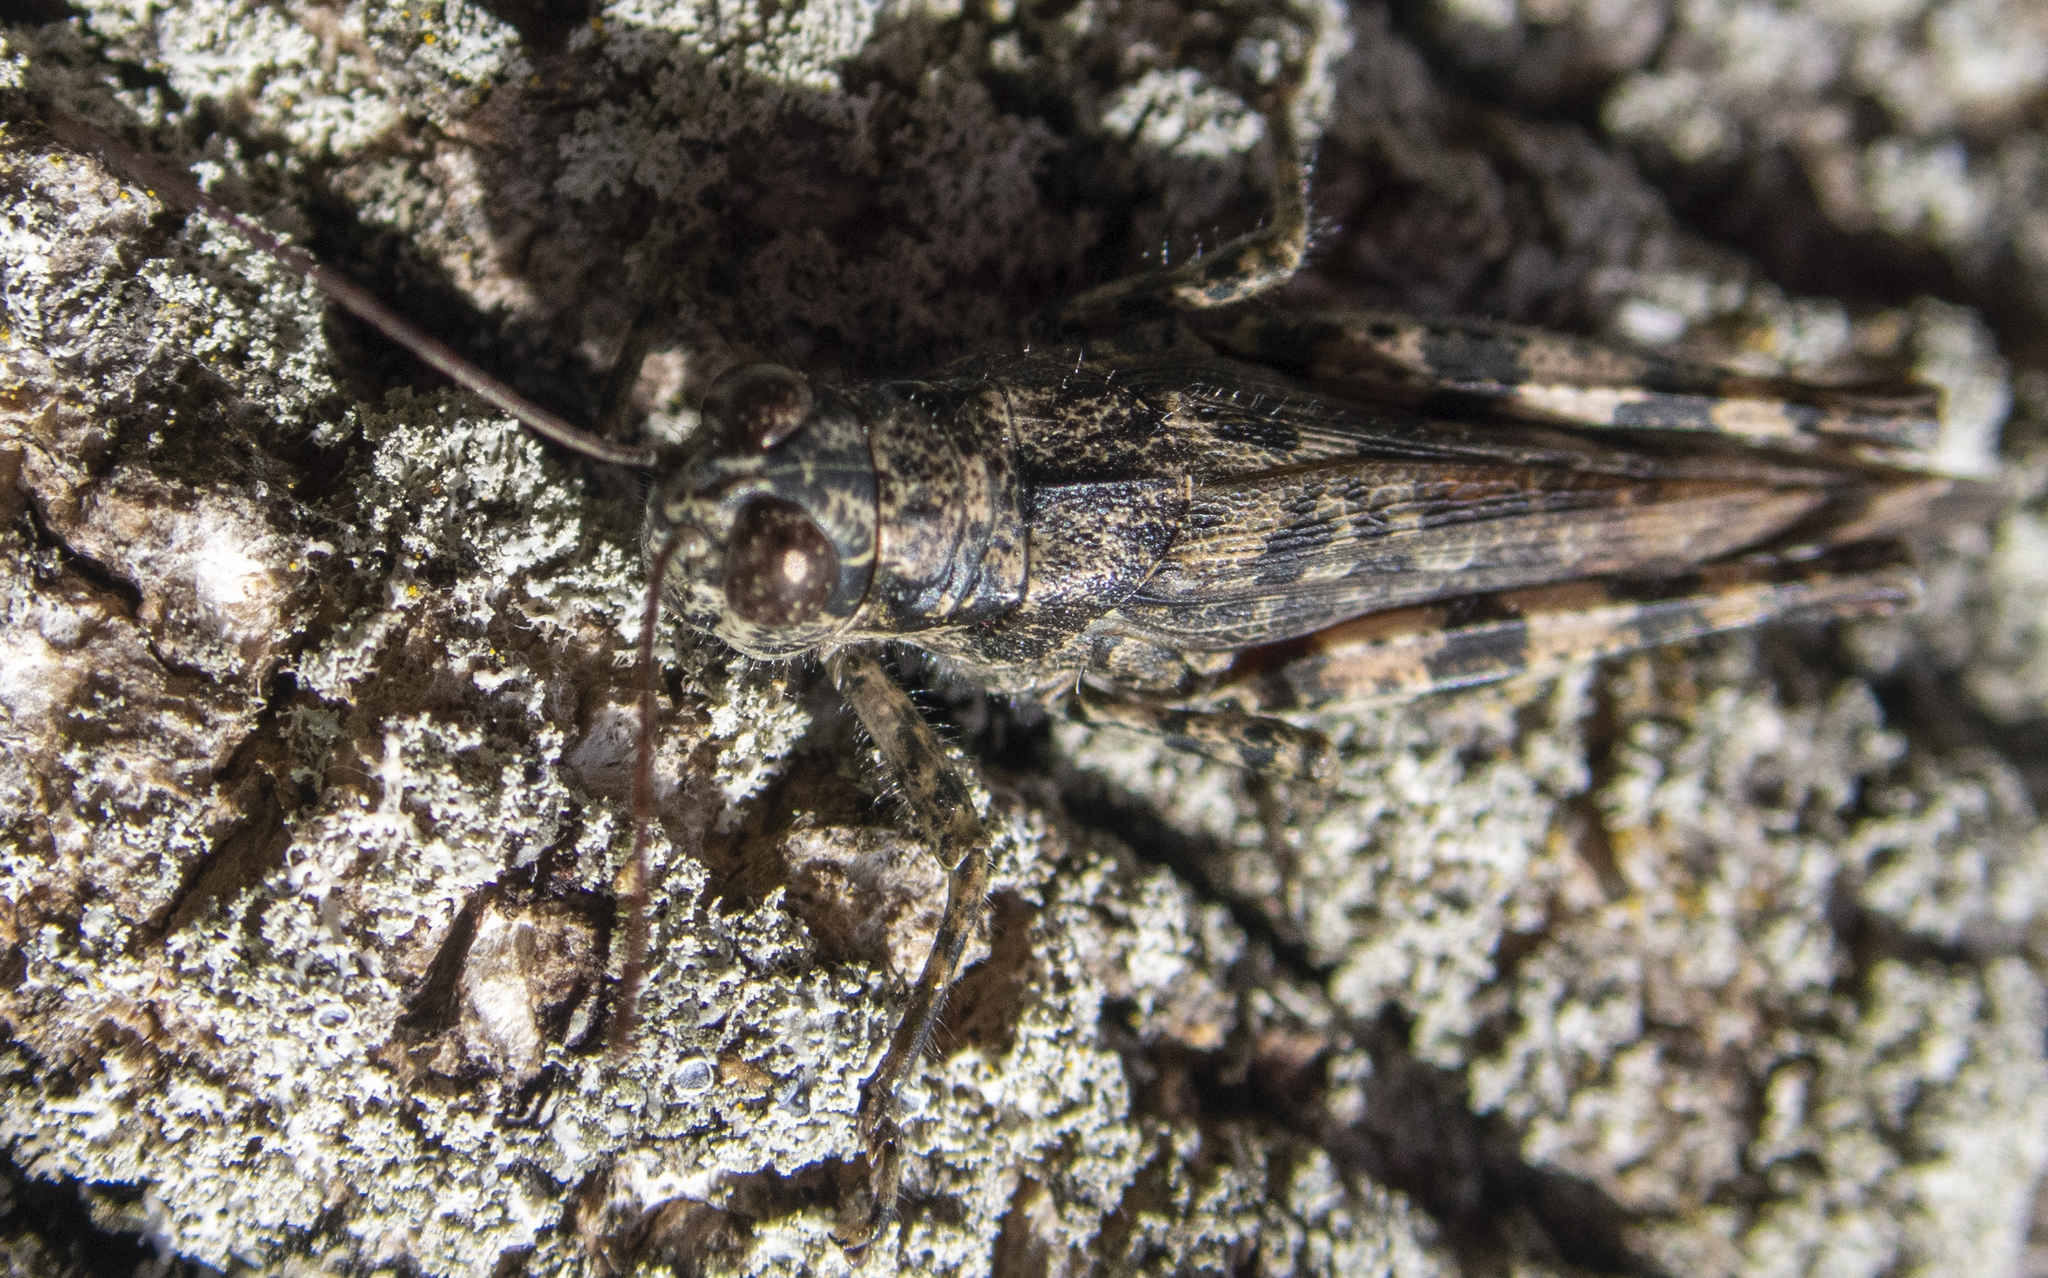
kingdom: Animalia
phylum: Arthropoda
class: Insecta
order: Orthoptera
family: Acrididae
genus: Melanoplus
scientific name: Melanoplus punctulatus
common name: Pine-tree spur-throat grasshopper
